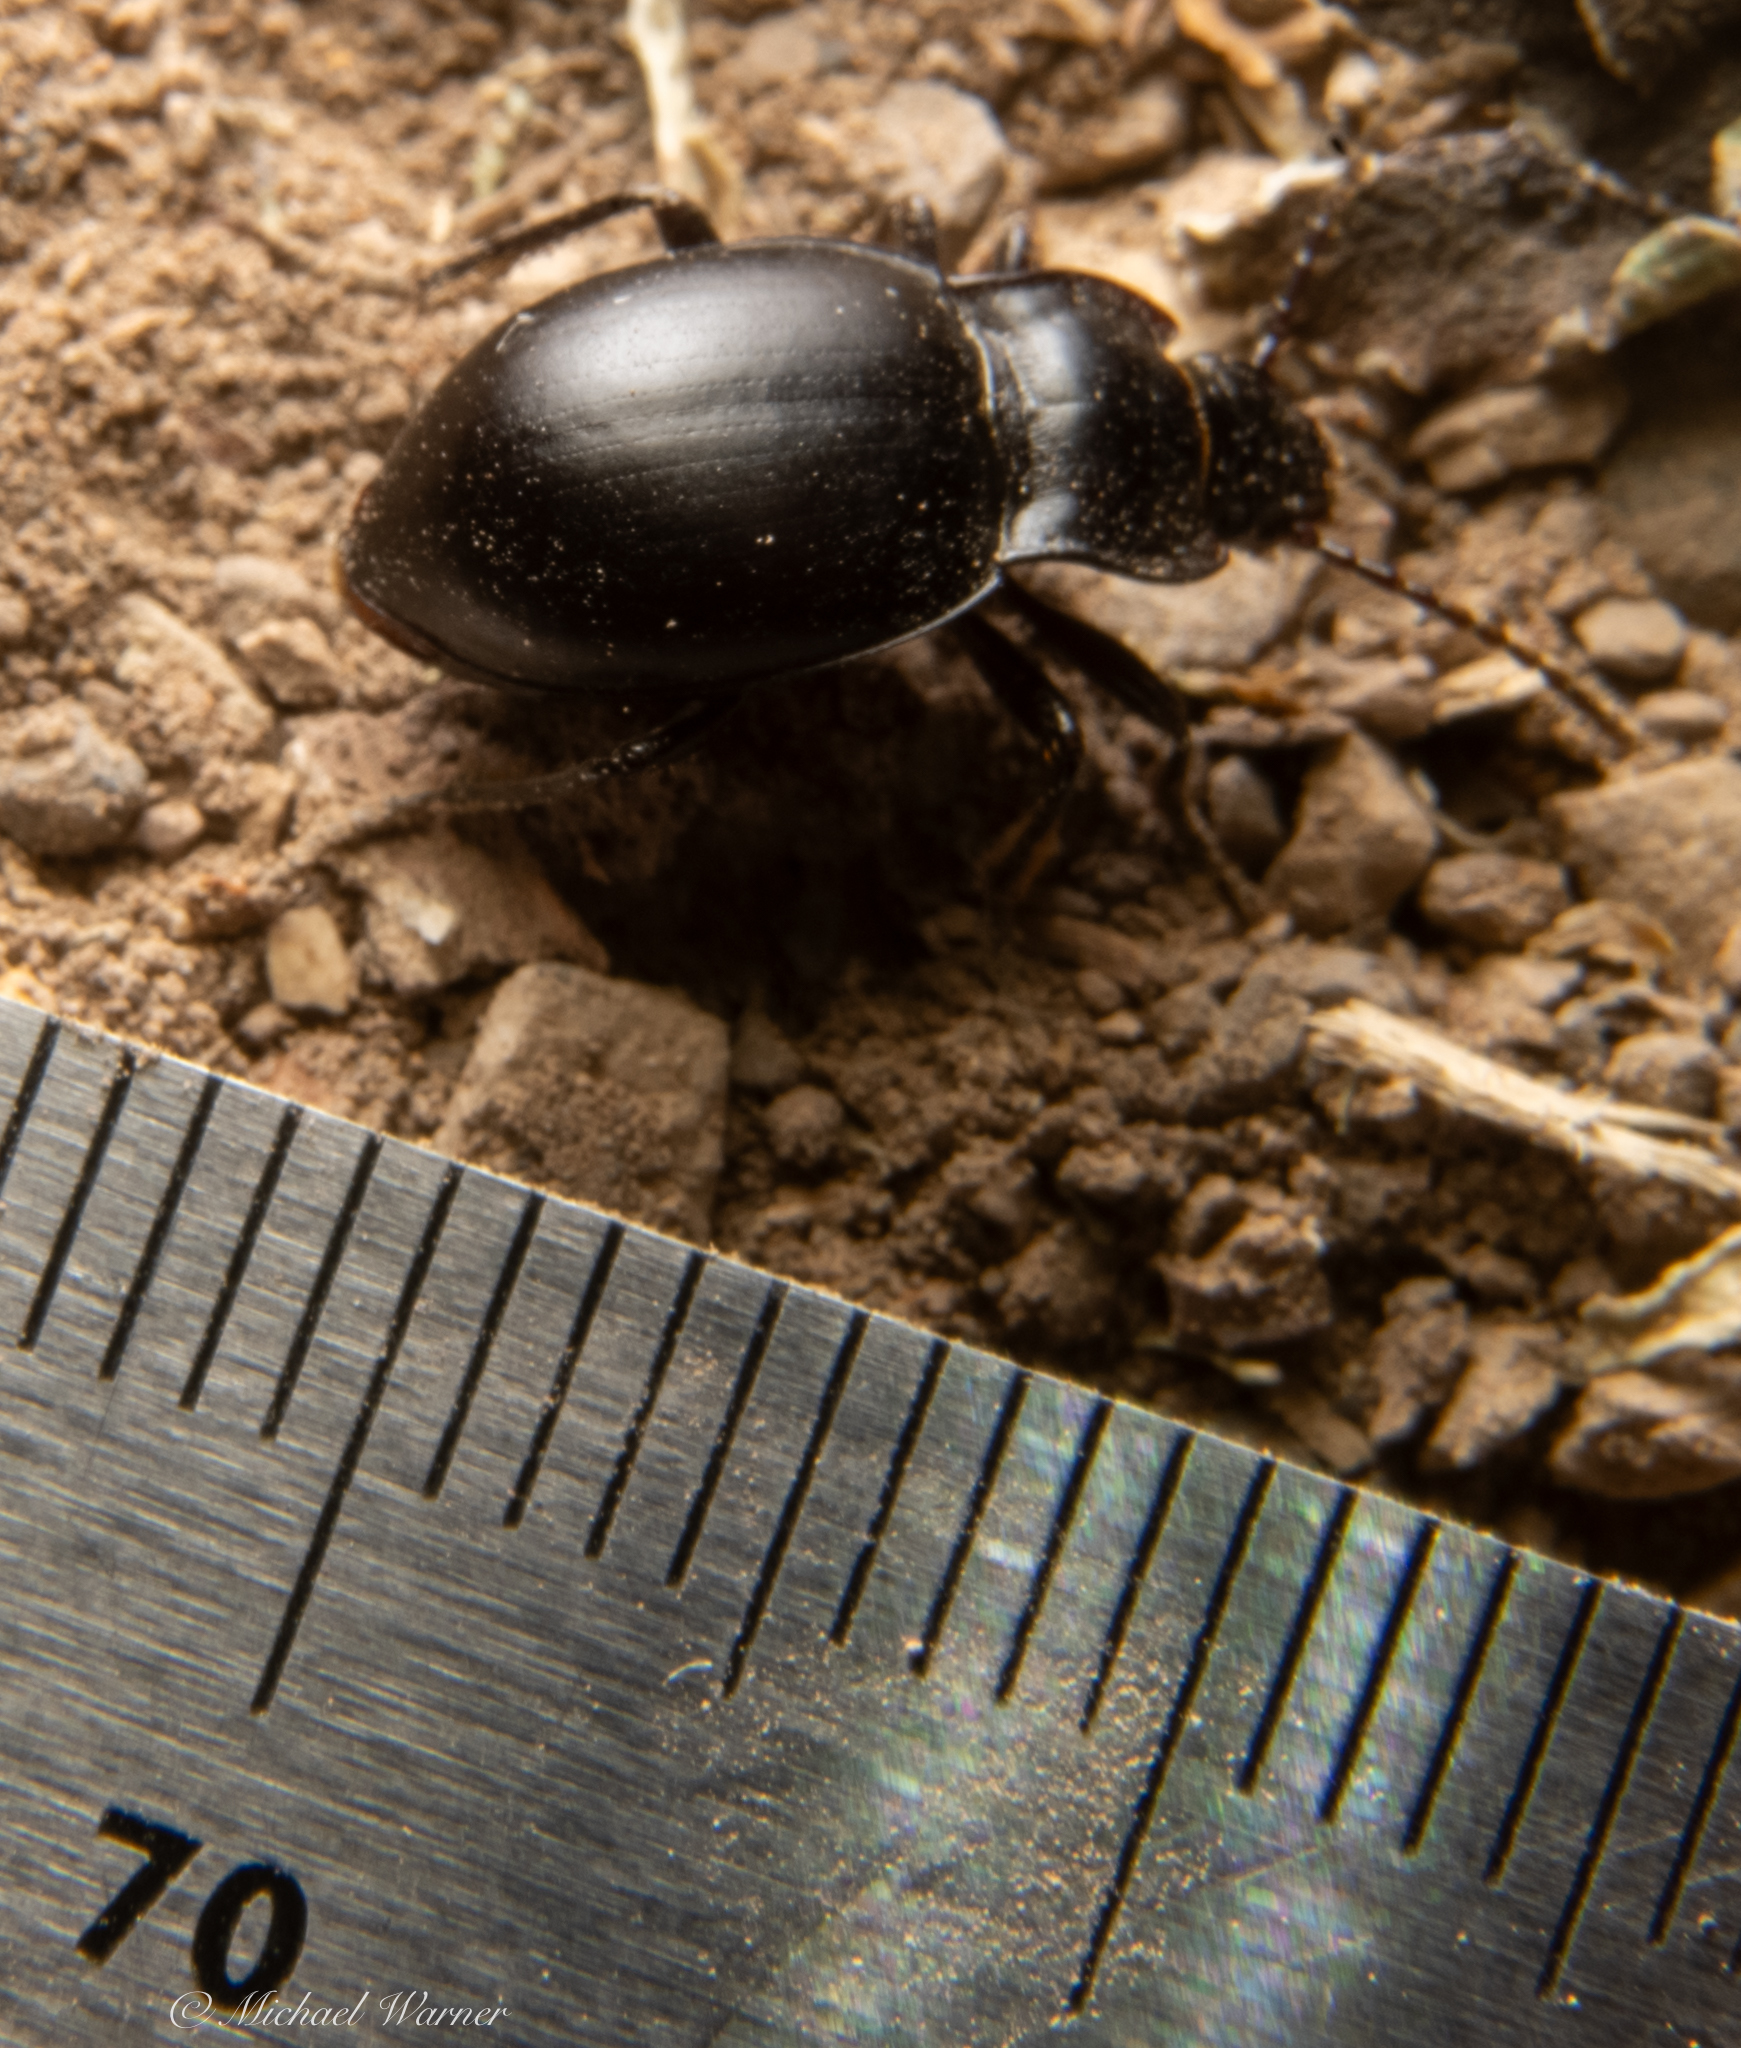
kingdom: Animalia
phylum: Arthropoda
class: Insecta
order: Coleoptera
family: Carabidae
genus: Metrius
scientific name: Metrius contractus
